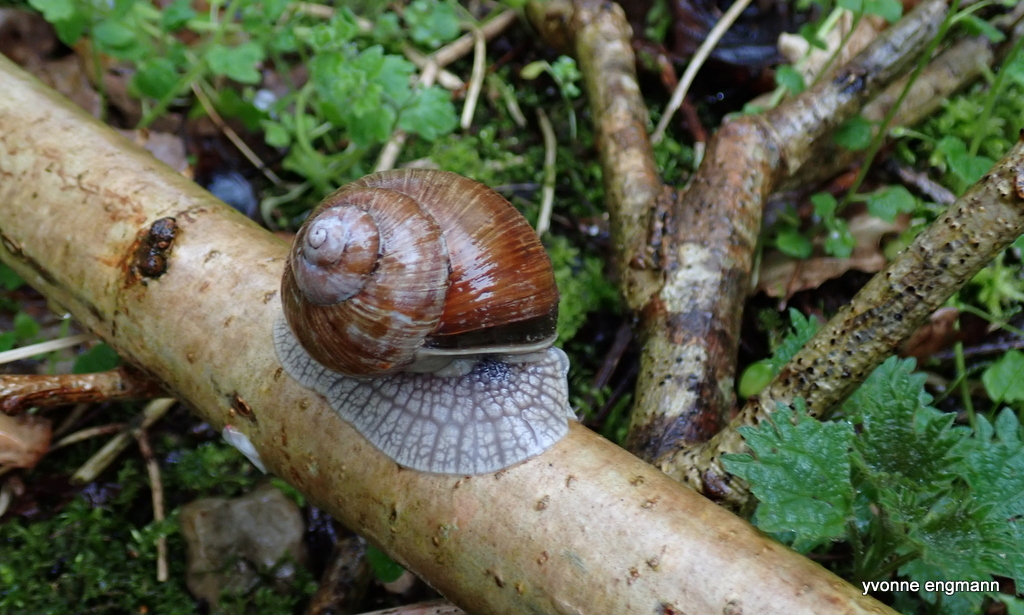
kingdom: Animalia
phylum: Mollusca
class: Gastropoda
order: Stylommatophora
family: Helicidae
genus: Helix
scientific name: Helix pomatia
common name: Roman snail
